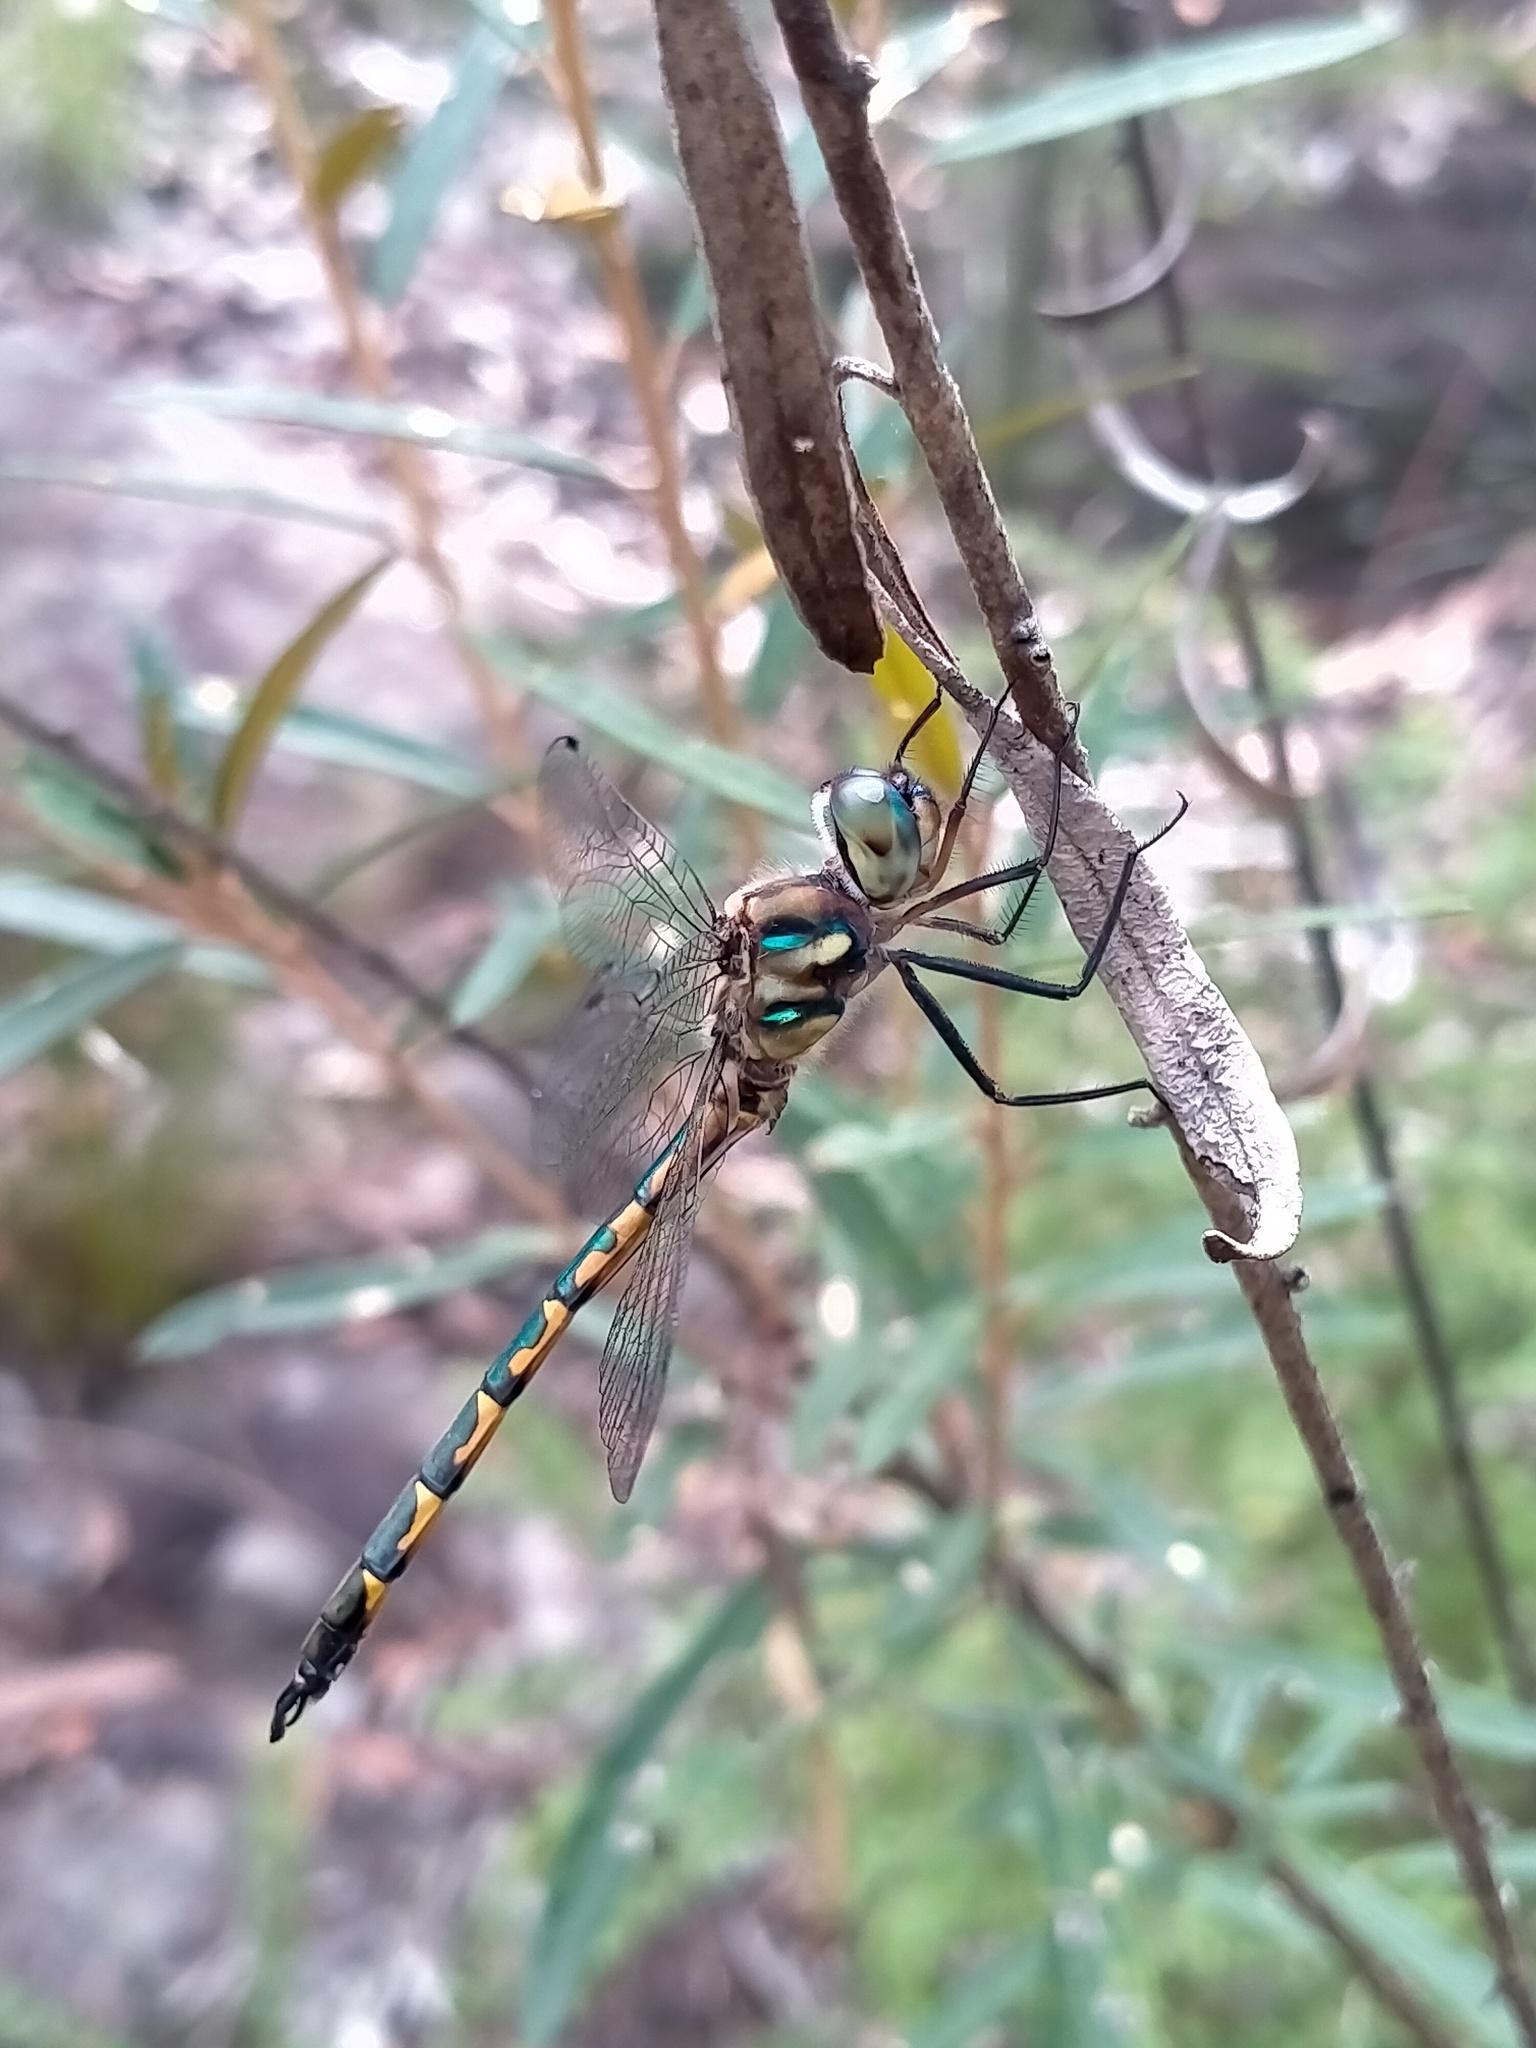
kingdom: Animalia
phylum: Arthropoda
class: Insecta
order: Odonata
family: Corduliidae
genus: Hemicordulia
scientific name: Hemicordulia australiae
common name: Sentry dragonfly
